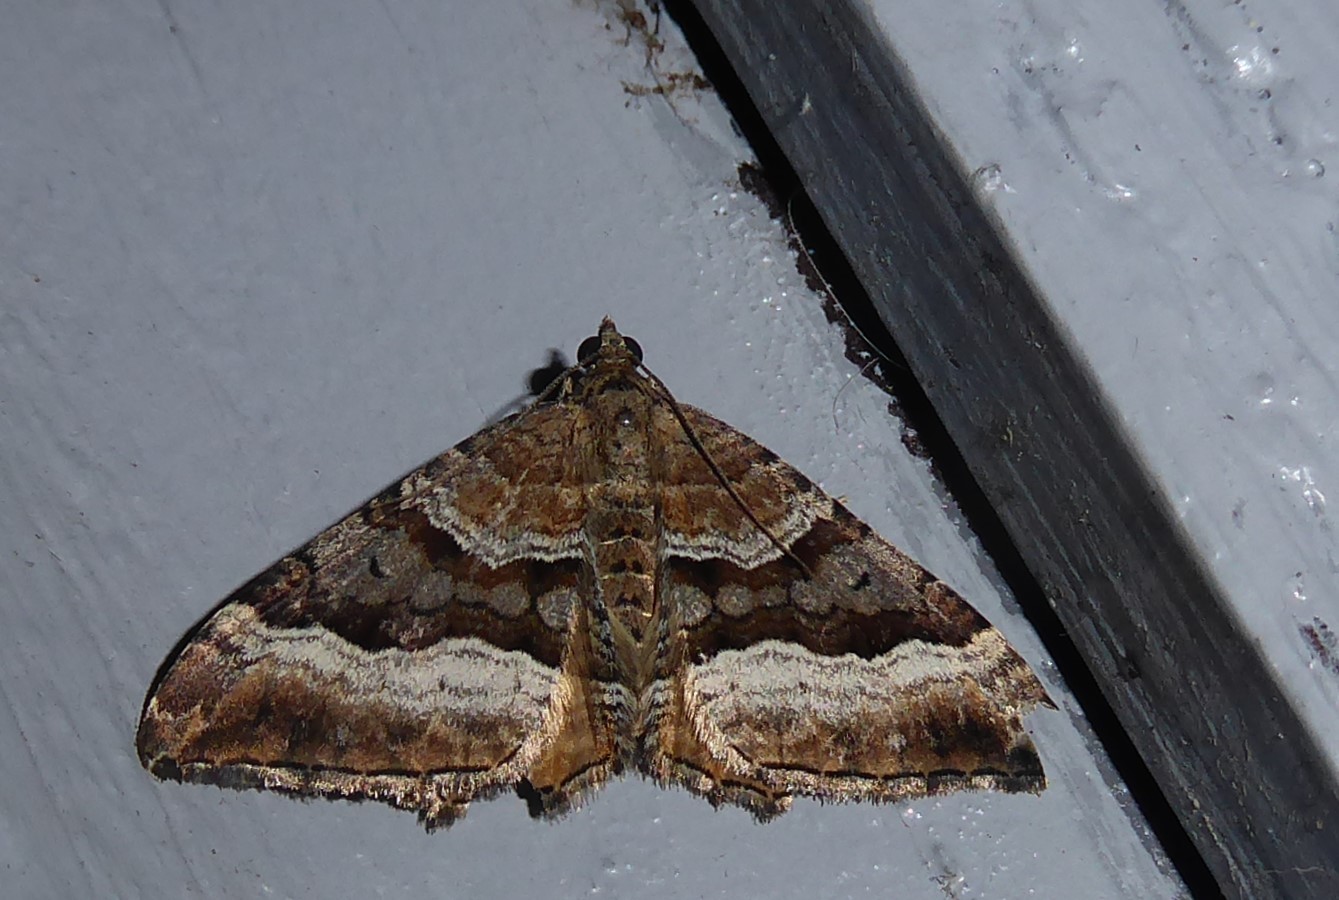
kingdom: Animalia
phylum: Arthropoda
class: Insecta
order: Lepidoptera
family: Geometridae
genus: Hydriomena
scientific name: Hydriomena deltoidata
